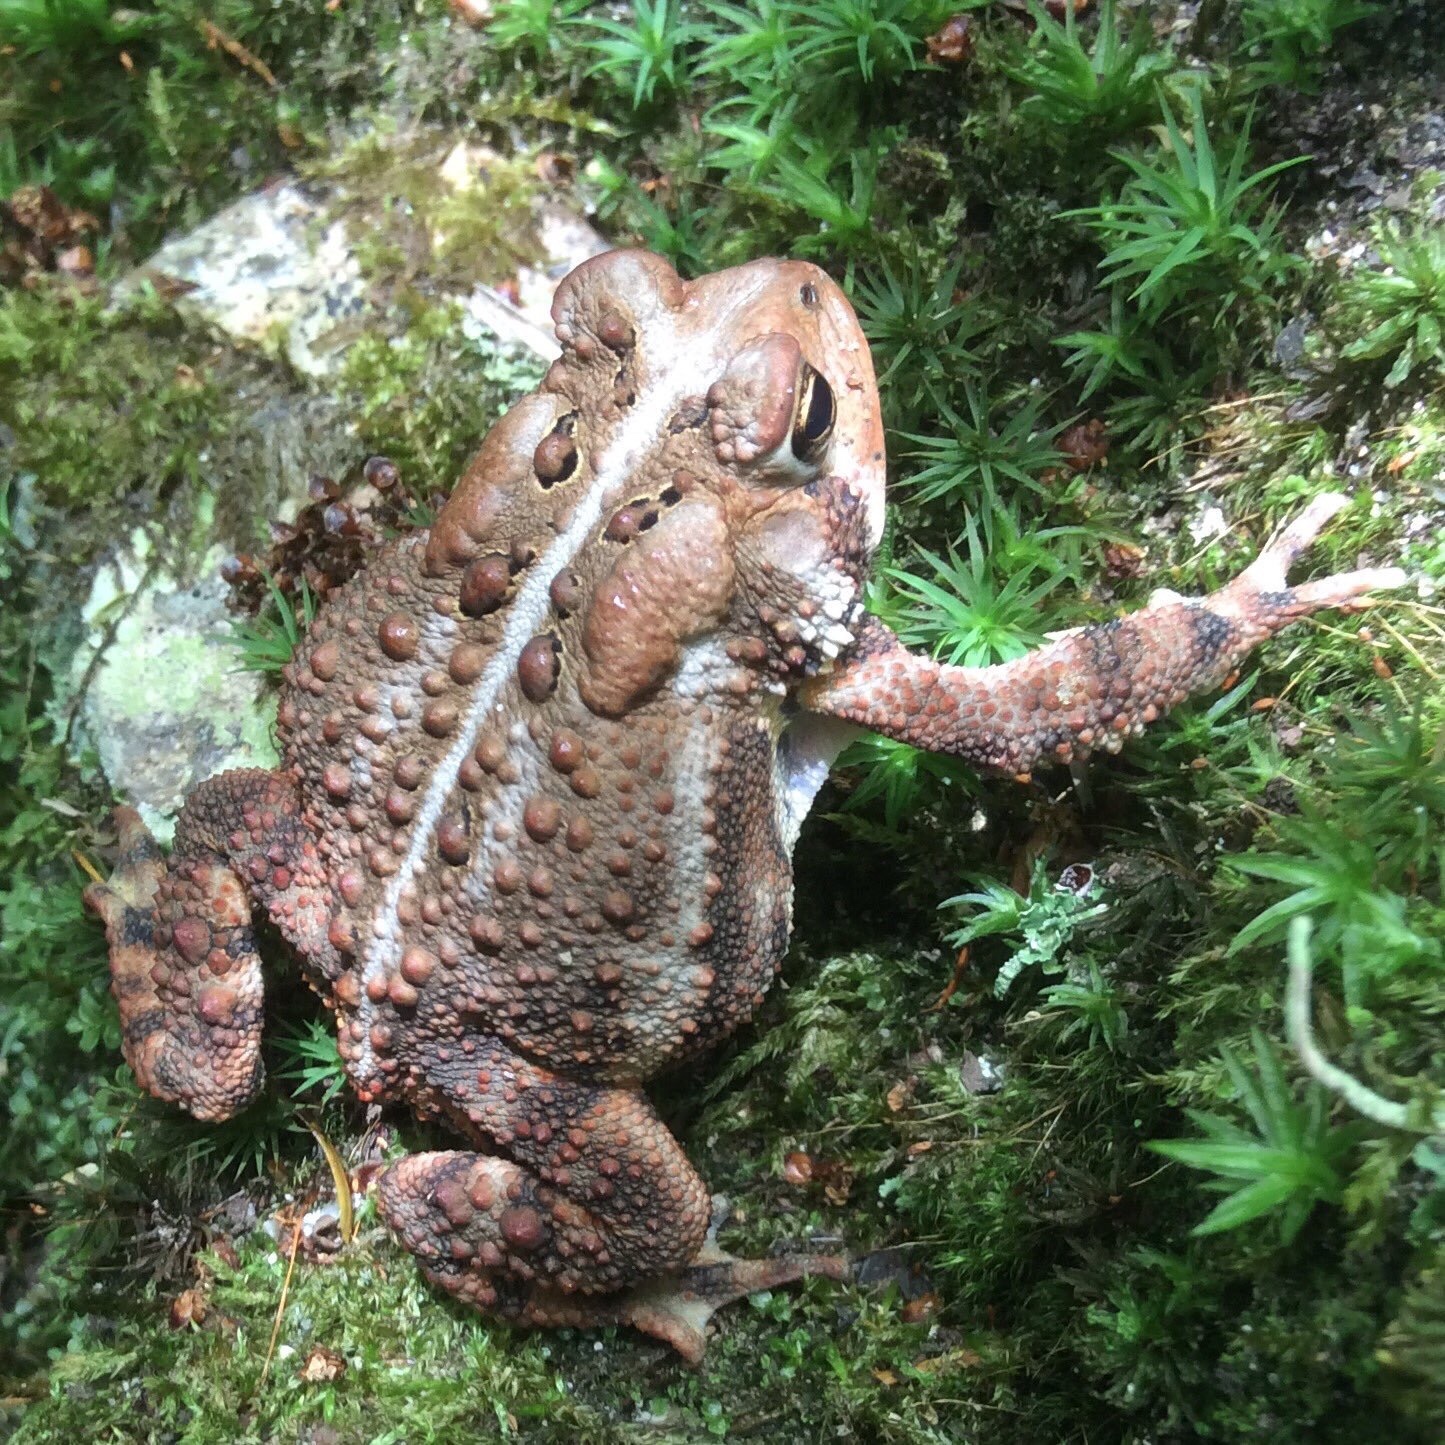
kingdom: Animalia
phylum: Chordata
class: Amphibia
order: Anura
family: Bufonidae
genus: Anaxyrus
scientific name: Anaxyrus americanus
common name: American toad
